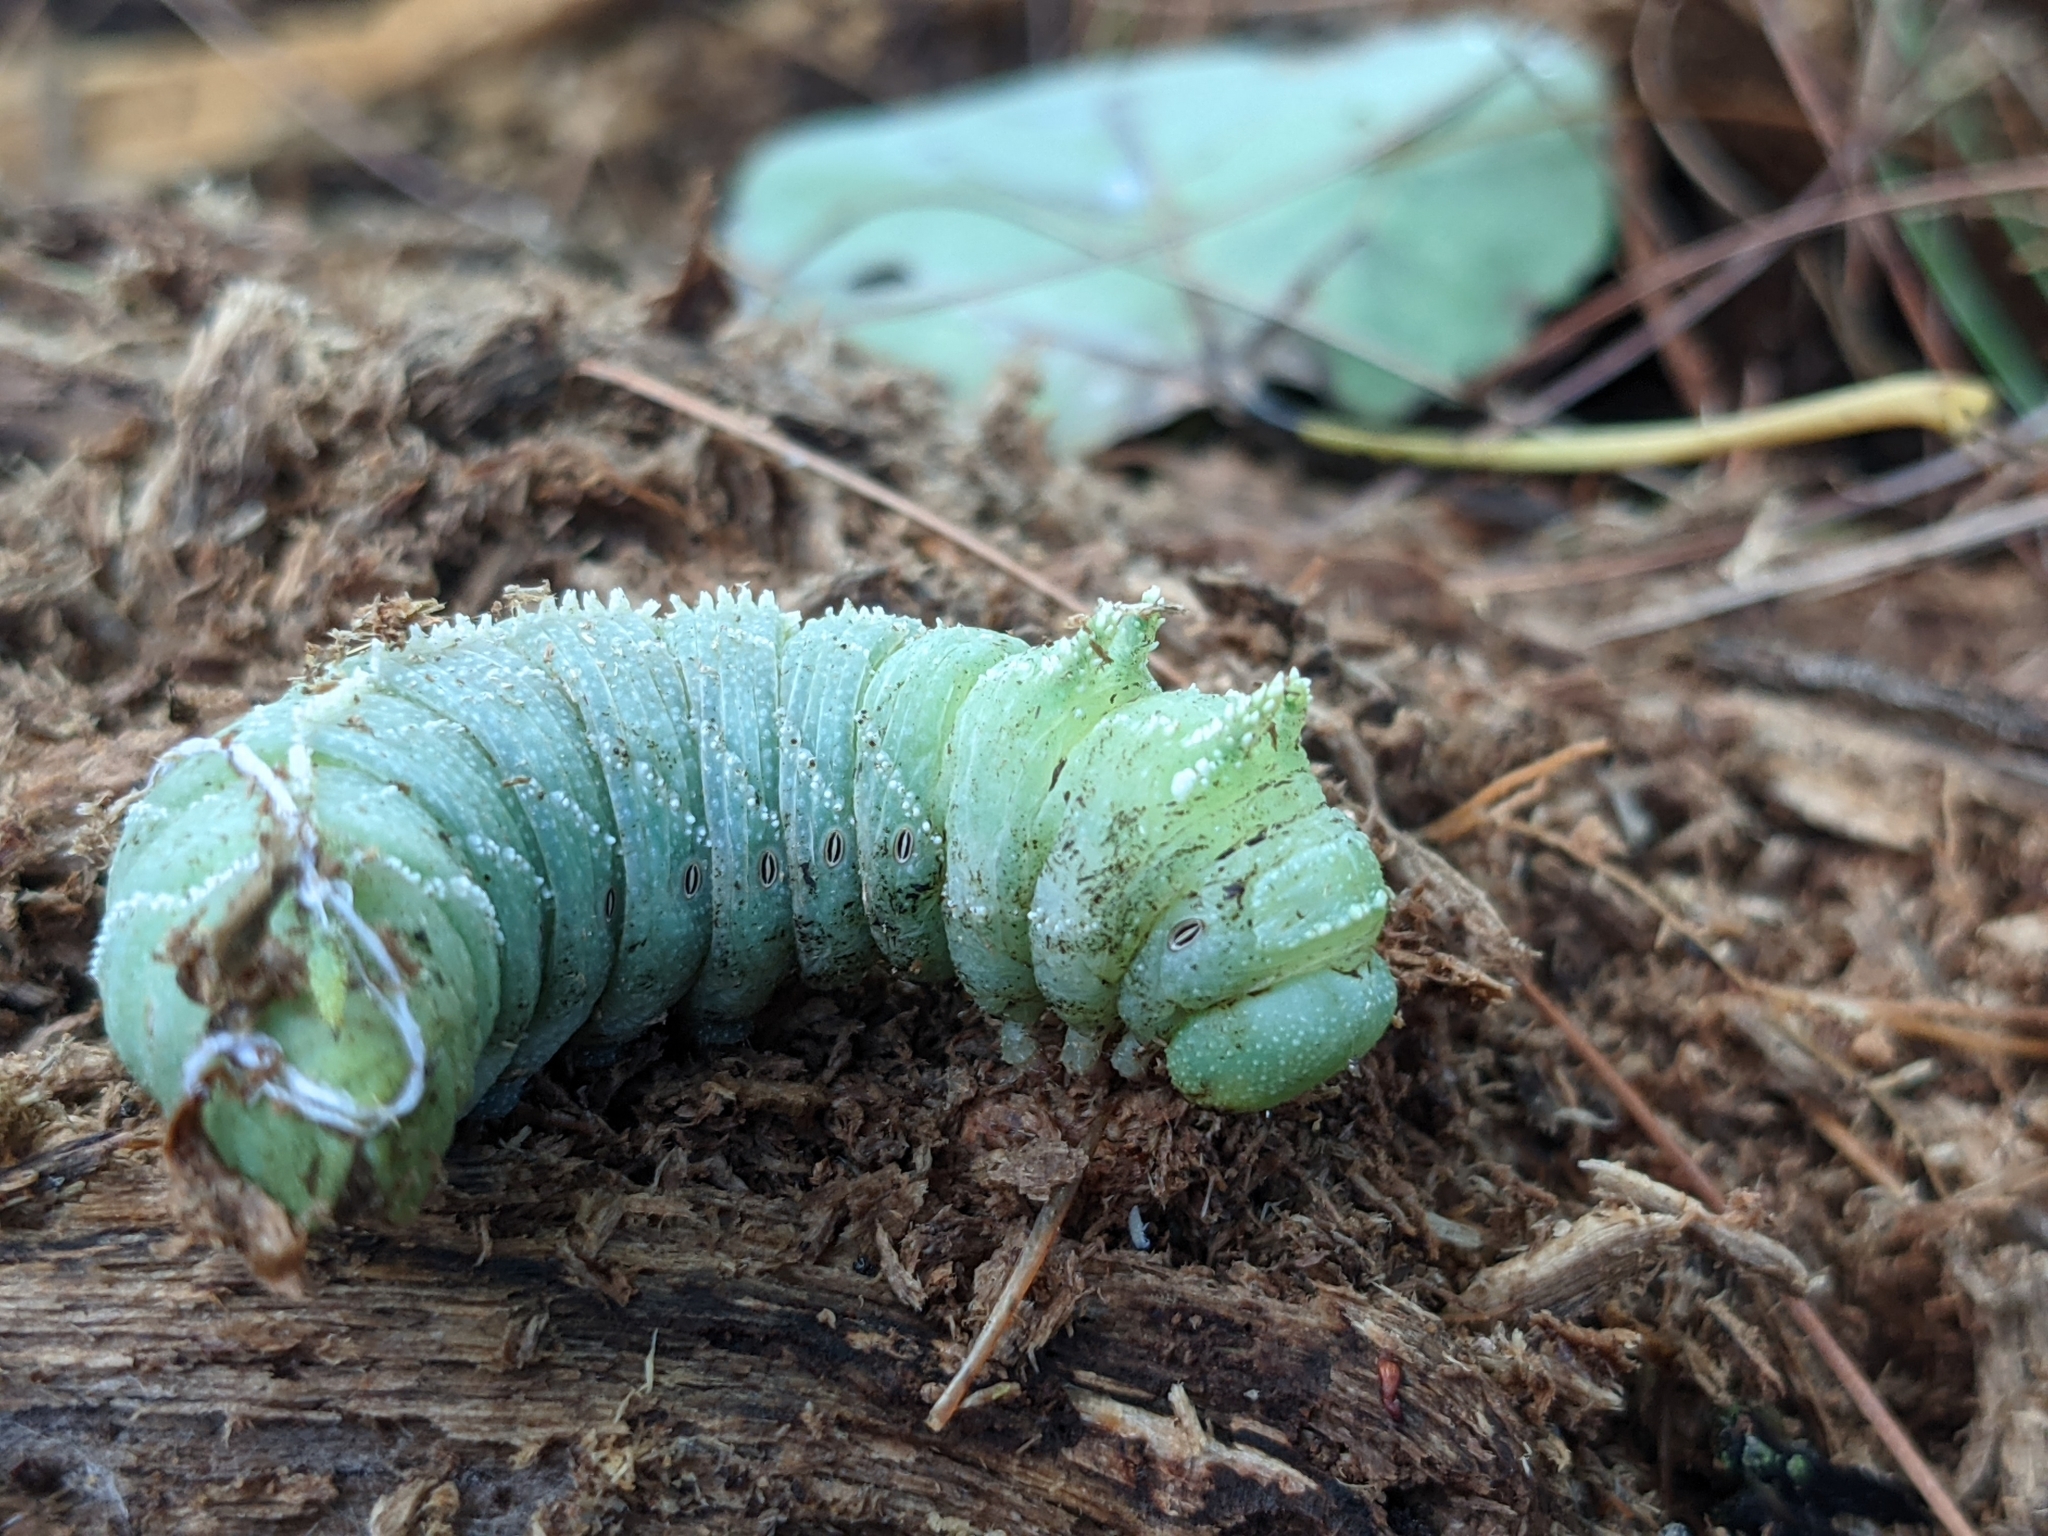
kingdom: Animalia
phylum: Arthropoda
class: Insecta
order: Lepidoptera
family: Sphingidae
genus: Ceratomia
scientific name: Ceratomia amyntor
